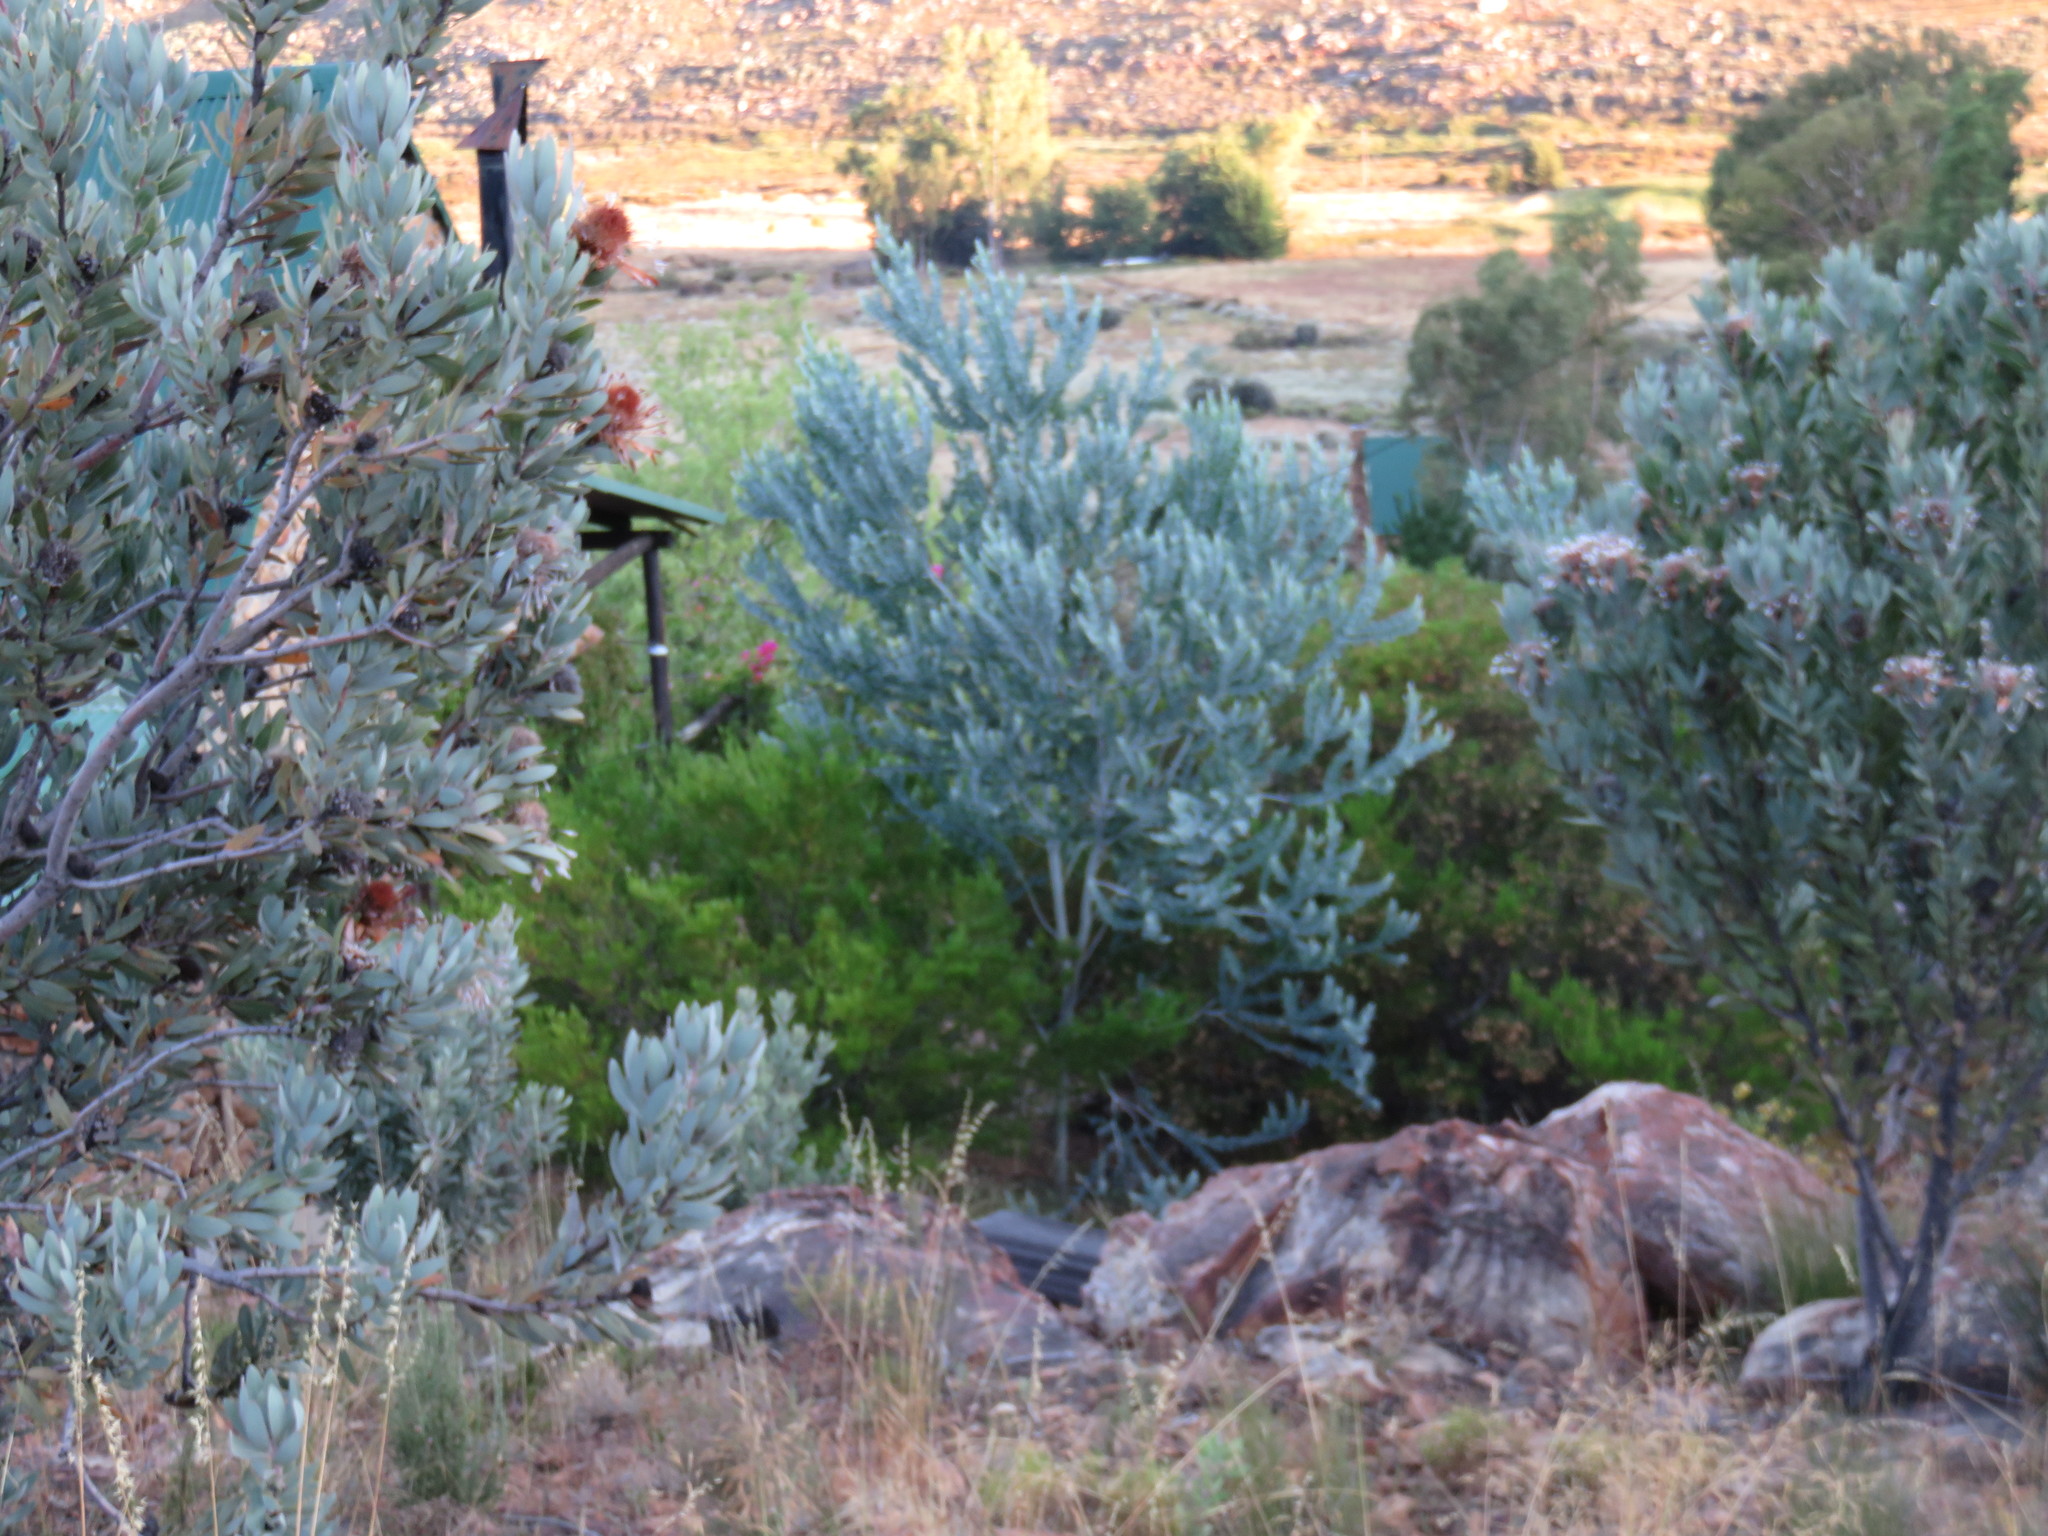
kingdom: Plantae
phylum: Tracheophyta
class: Magnoliopsida
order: Fabales
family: Fabaceae
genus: Acacia
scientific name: Acacia podalyriifolia
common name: Pearl wattle
